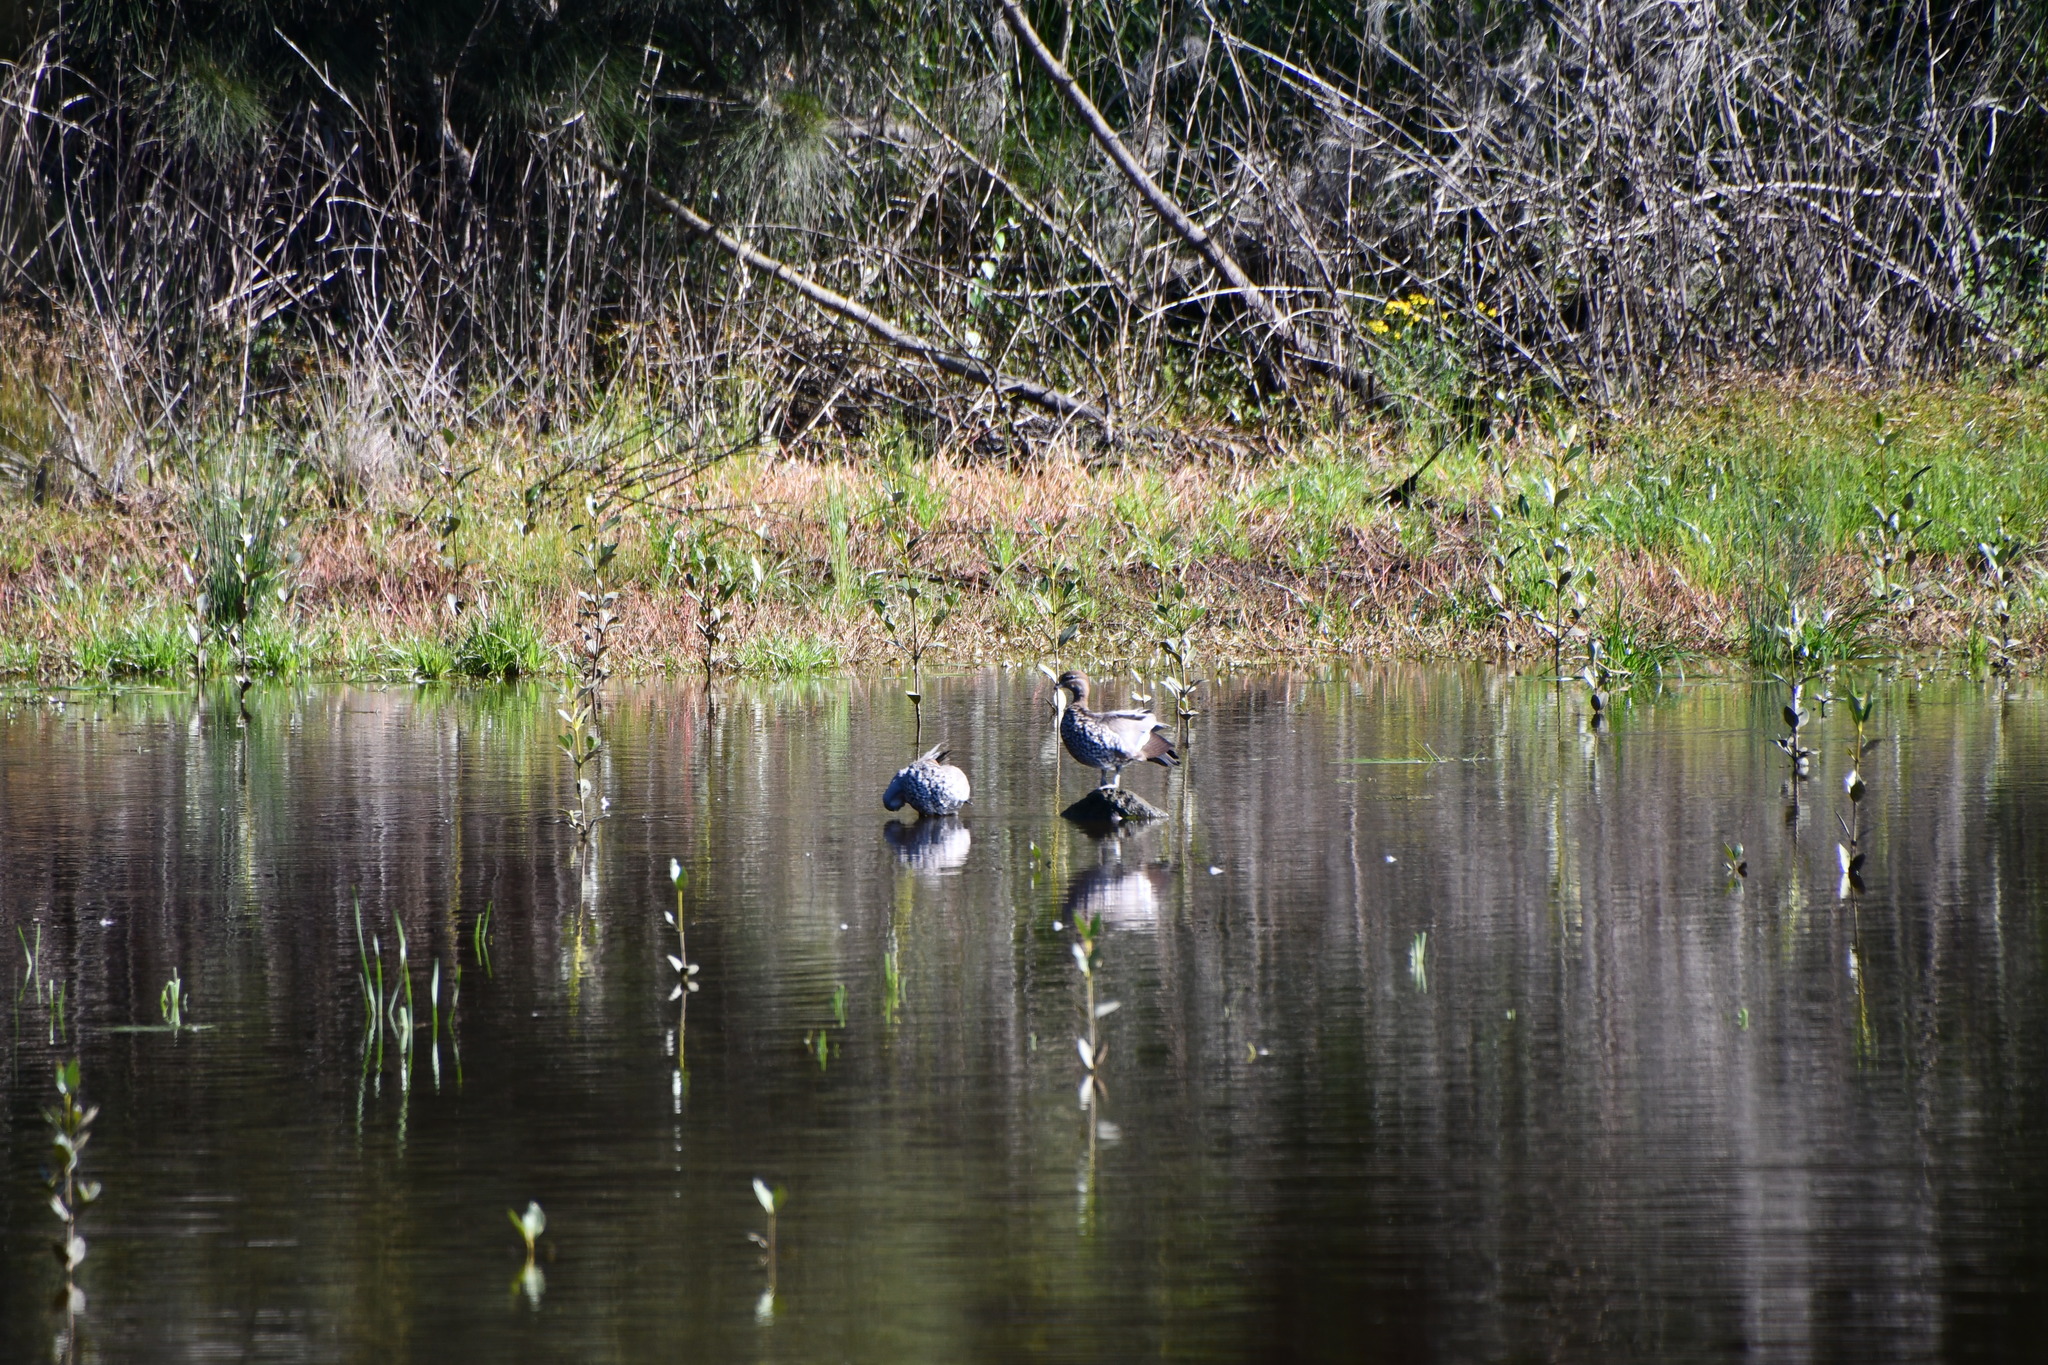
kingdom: Animalia
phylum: Chordata
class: Aves
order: Anseriformes
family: Anatidae
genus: Chenonetta
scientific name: Chenonetta jubata
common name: Maned duck
